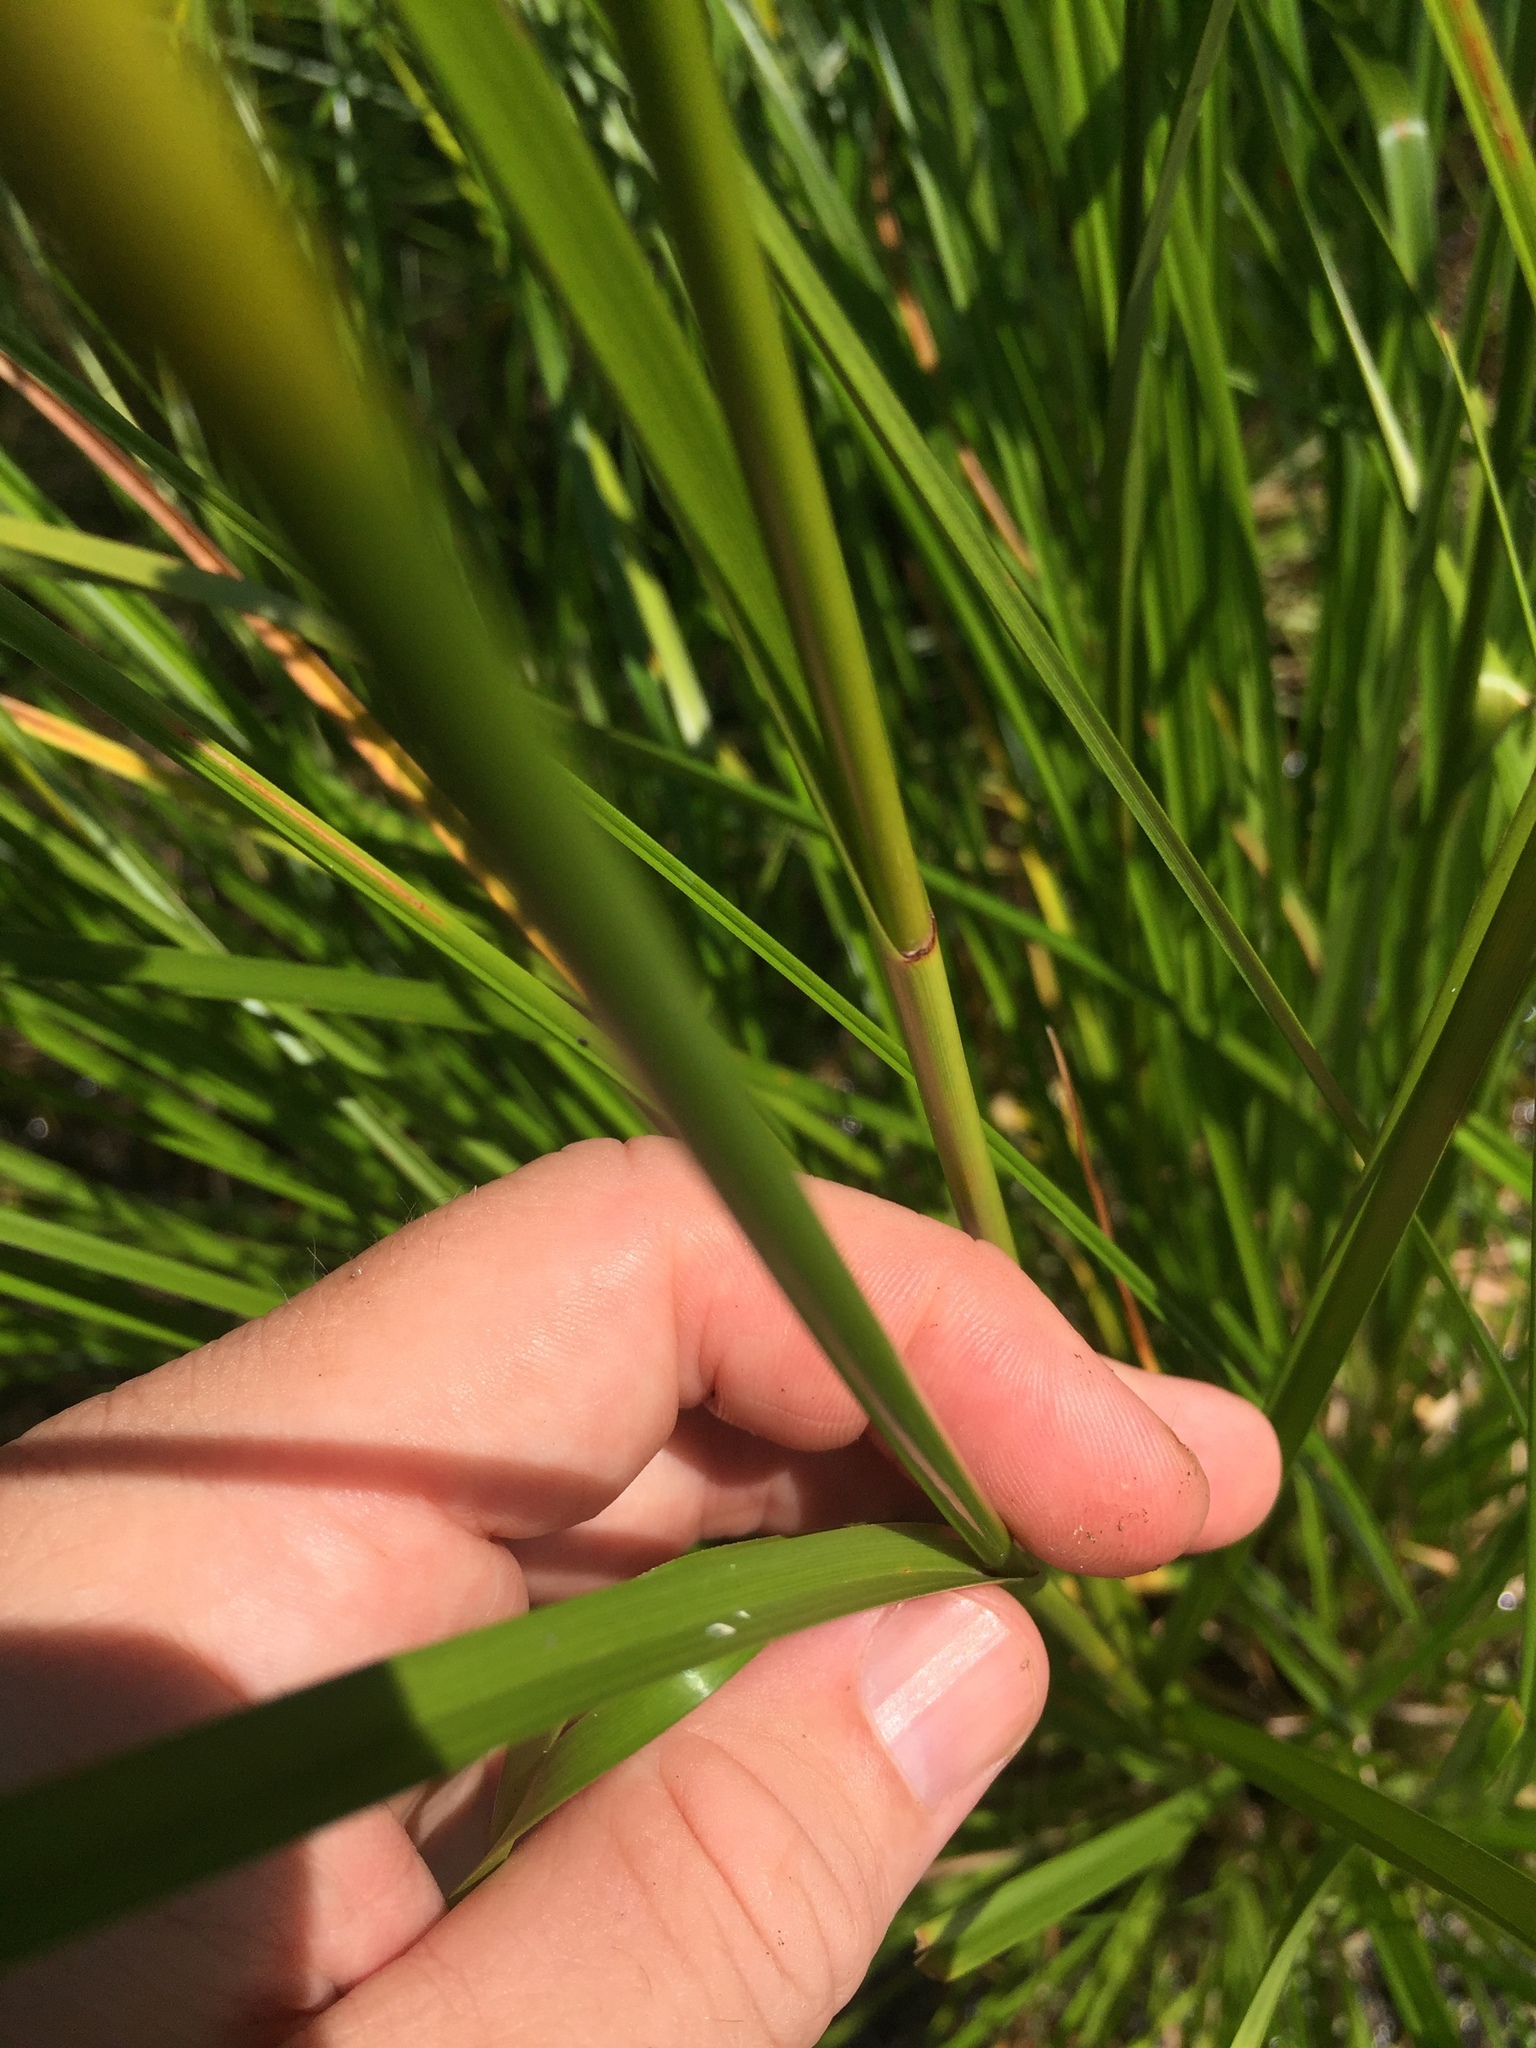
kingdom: Plantae
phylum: Tracheophyta
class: Liliopsida
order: Poales
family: Cyperaceae
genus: Scirpus
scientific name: Scirpus cyperinus
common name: Black-sheathed bulrush
